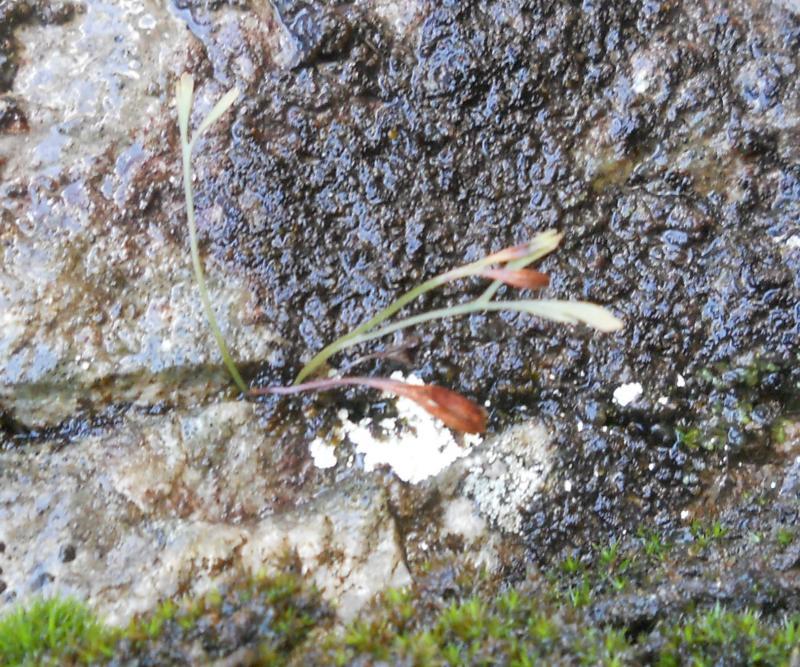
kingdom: Plantae
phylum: Tracheophyta
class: Polypodiopsida
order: Polypodiales
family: Aspleniaceae
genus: Asplenium
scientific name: Asplenium septentrionale
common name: Forked spleenwort
